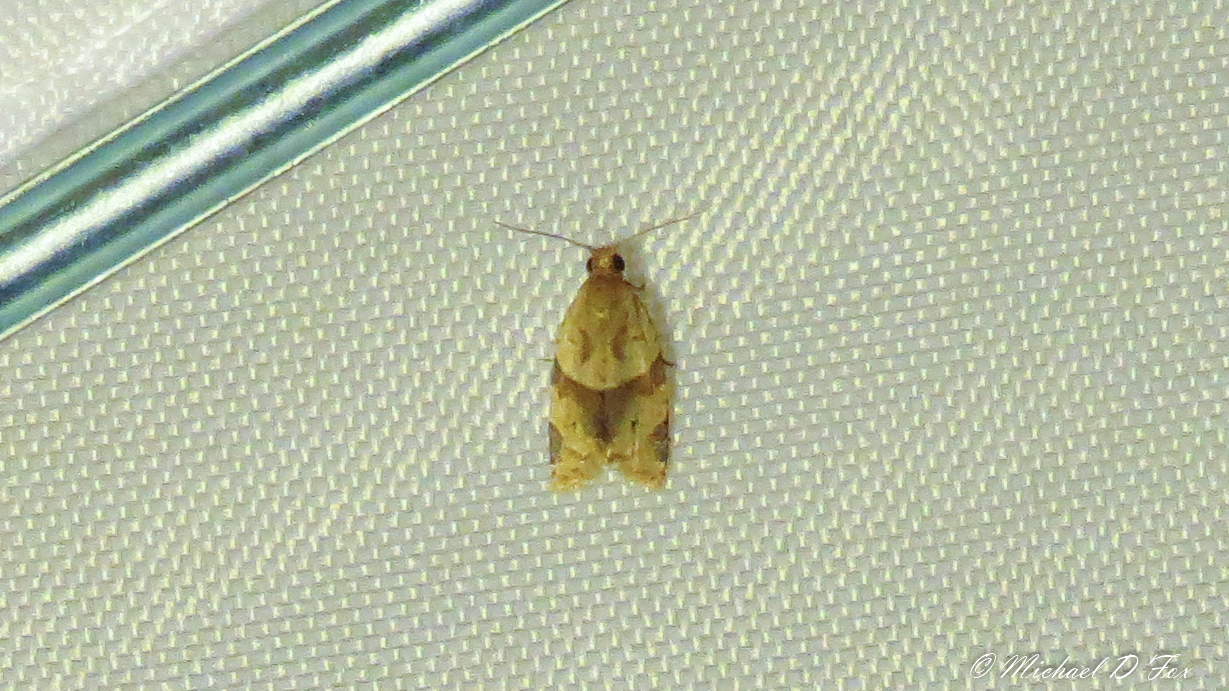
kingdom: Animalia
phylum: Arthropoda
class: Insecta
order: Lepidoptera
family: Tortricidae
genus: Clepsis
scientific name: Clepsis peritana
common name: Garden tortrix
